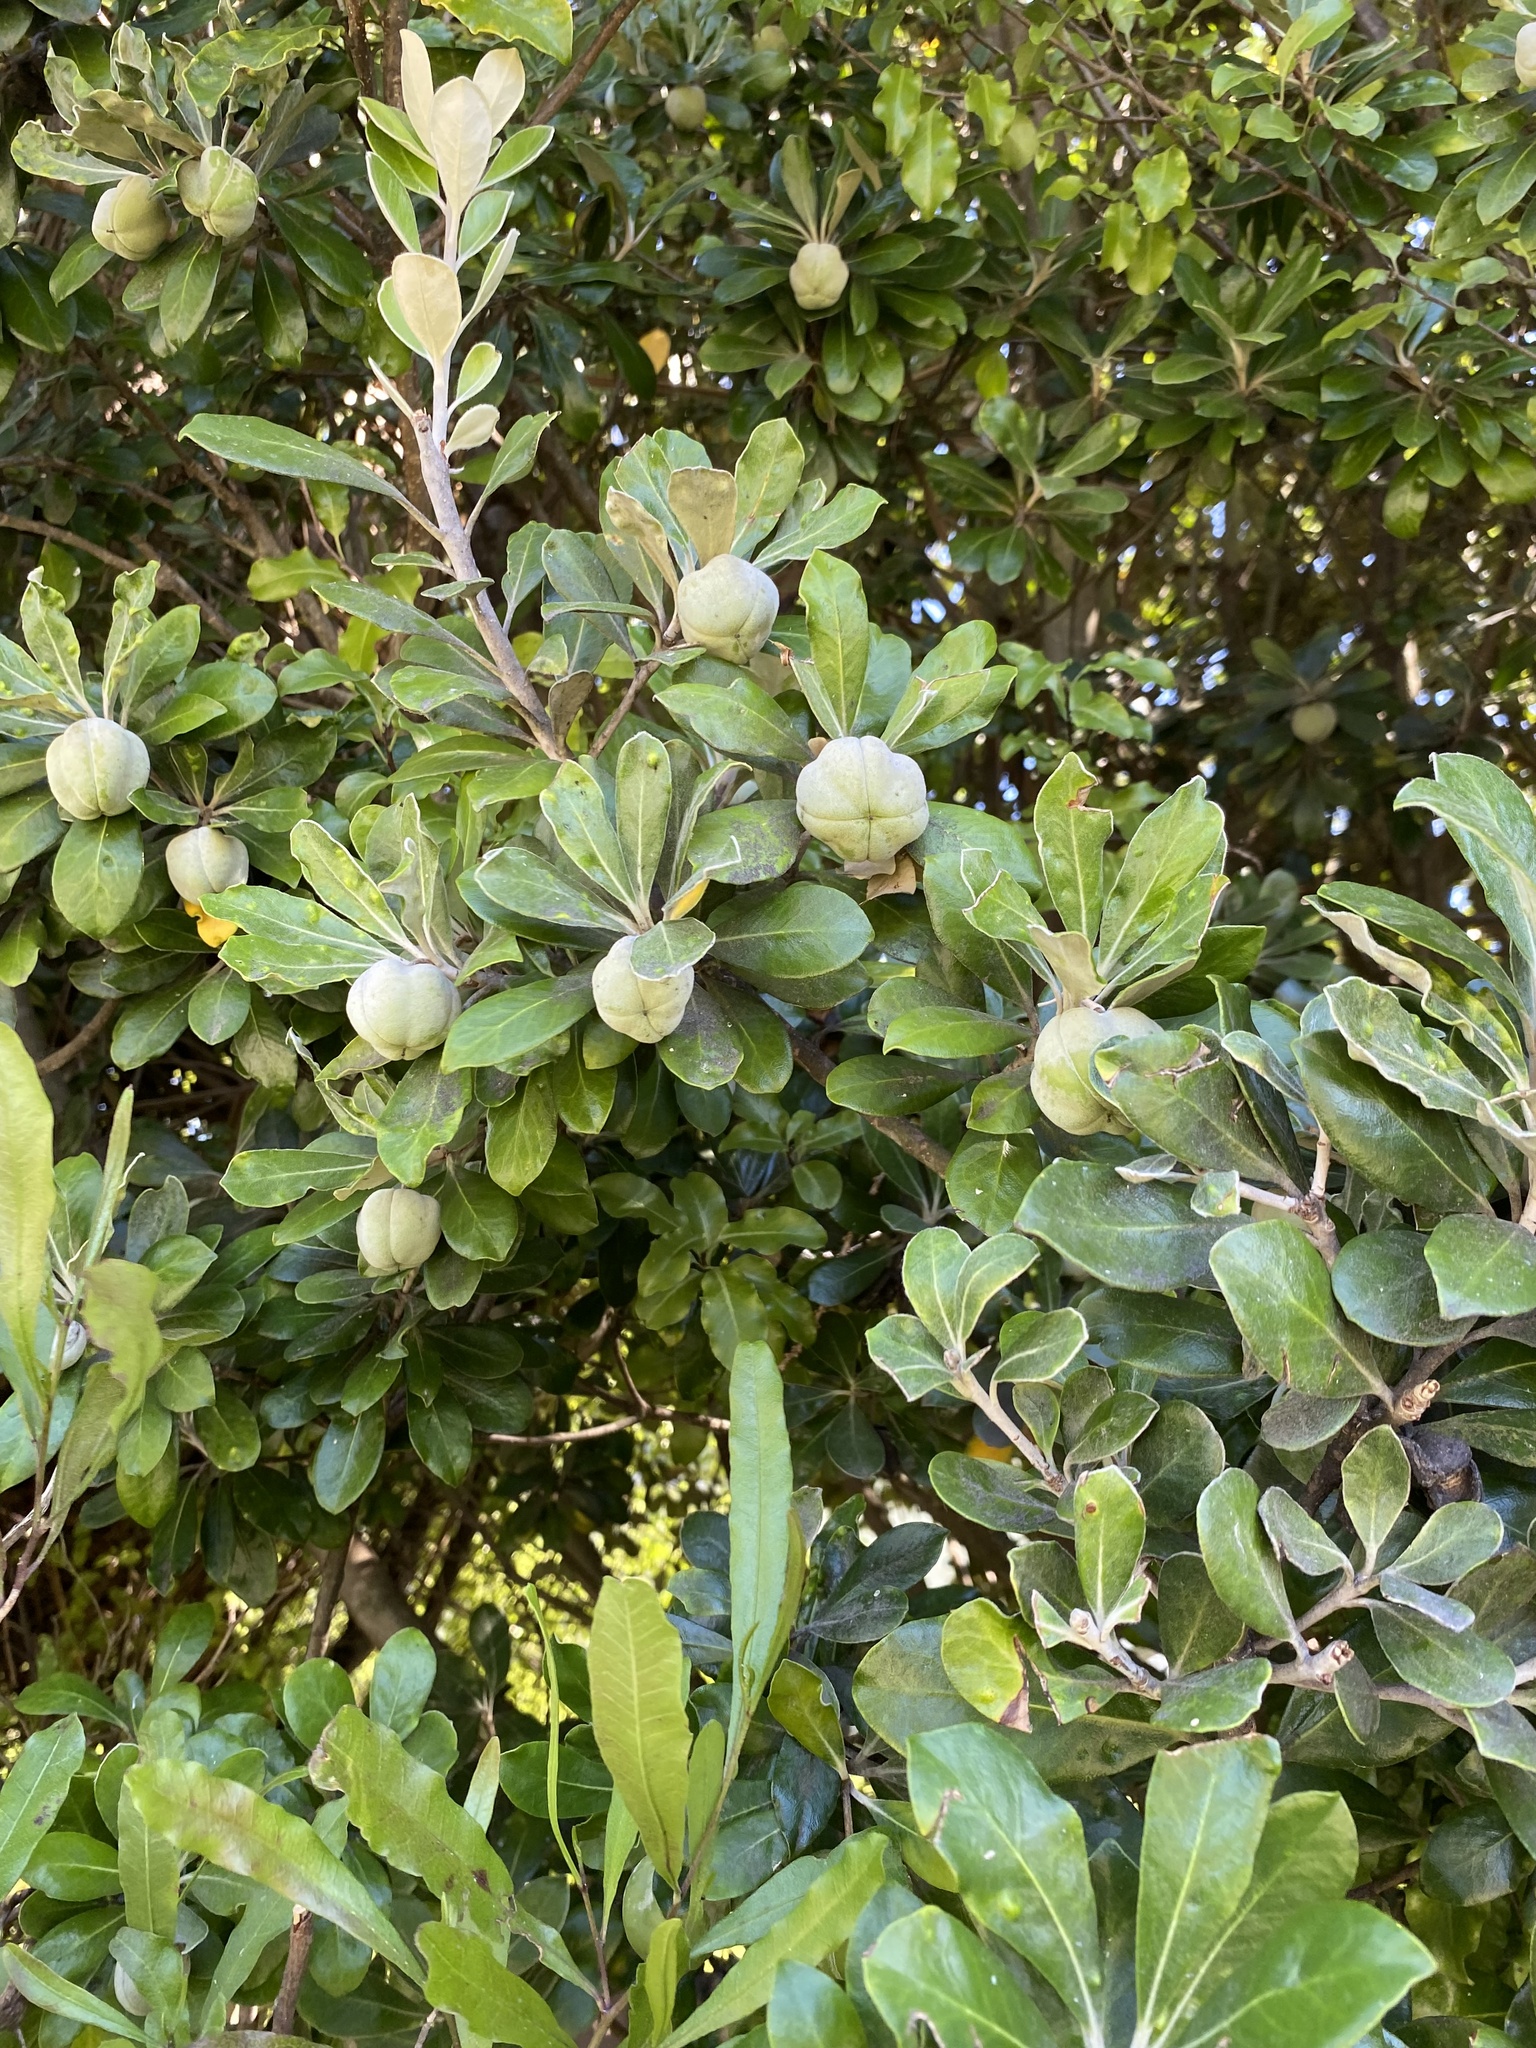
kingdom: Plantae
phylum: Tracheophyta
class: Magnoliopsida
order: Apiales
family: Pittosporaceae
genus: Pittosporum
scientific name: Pittosporum crassifolium
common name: Karo
